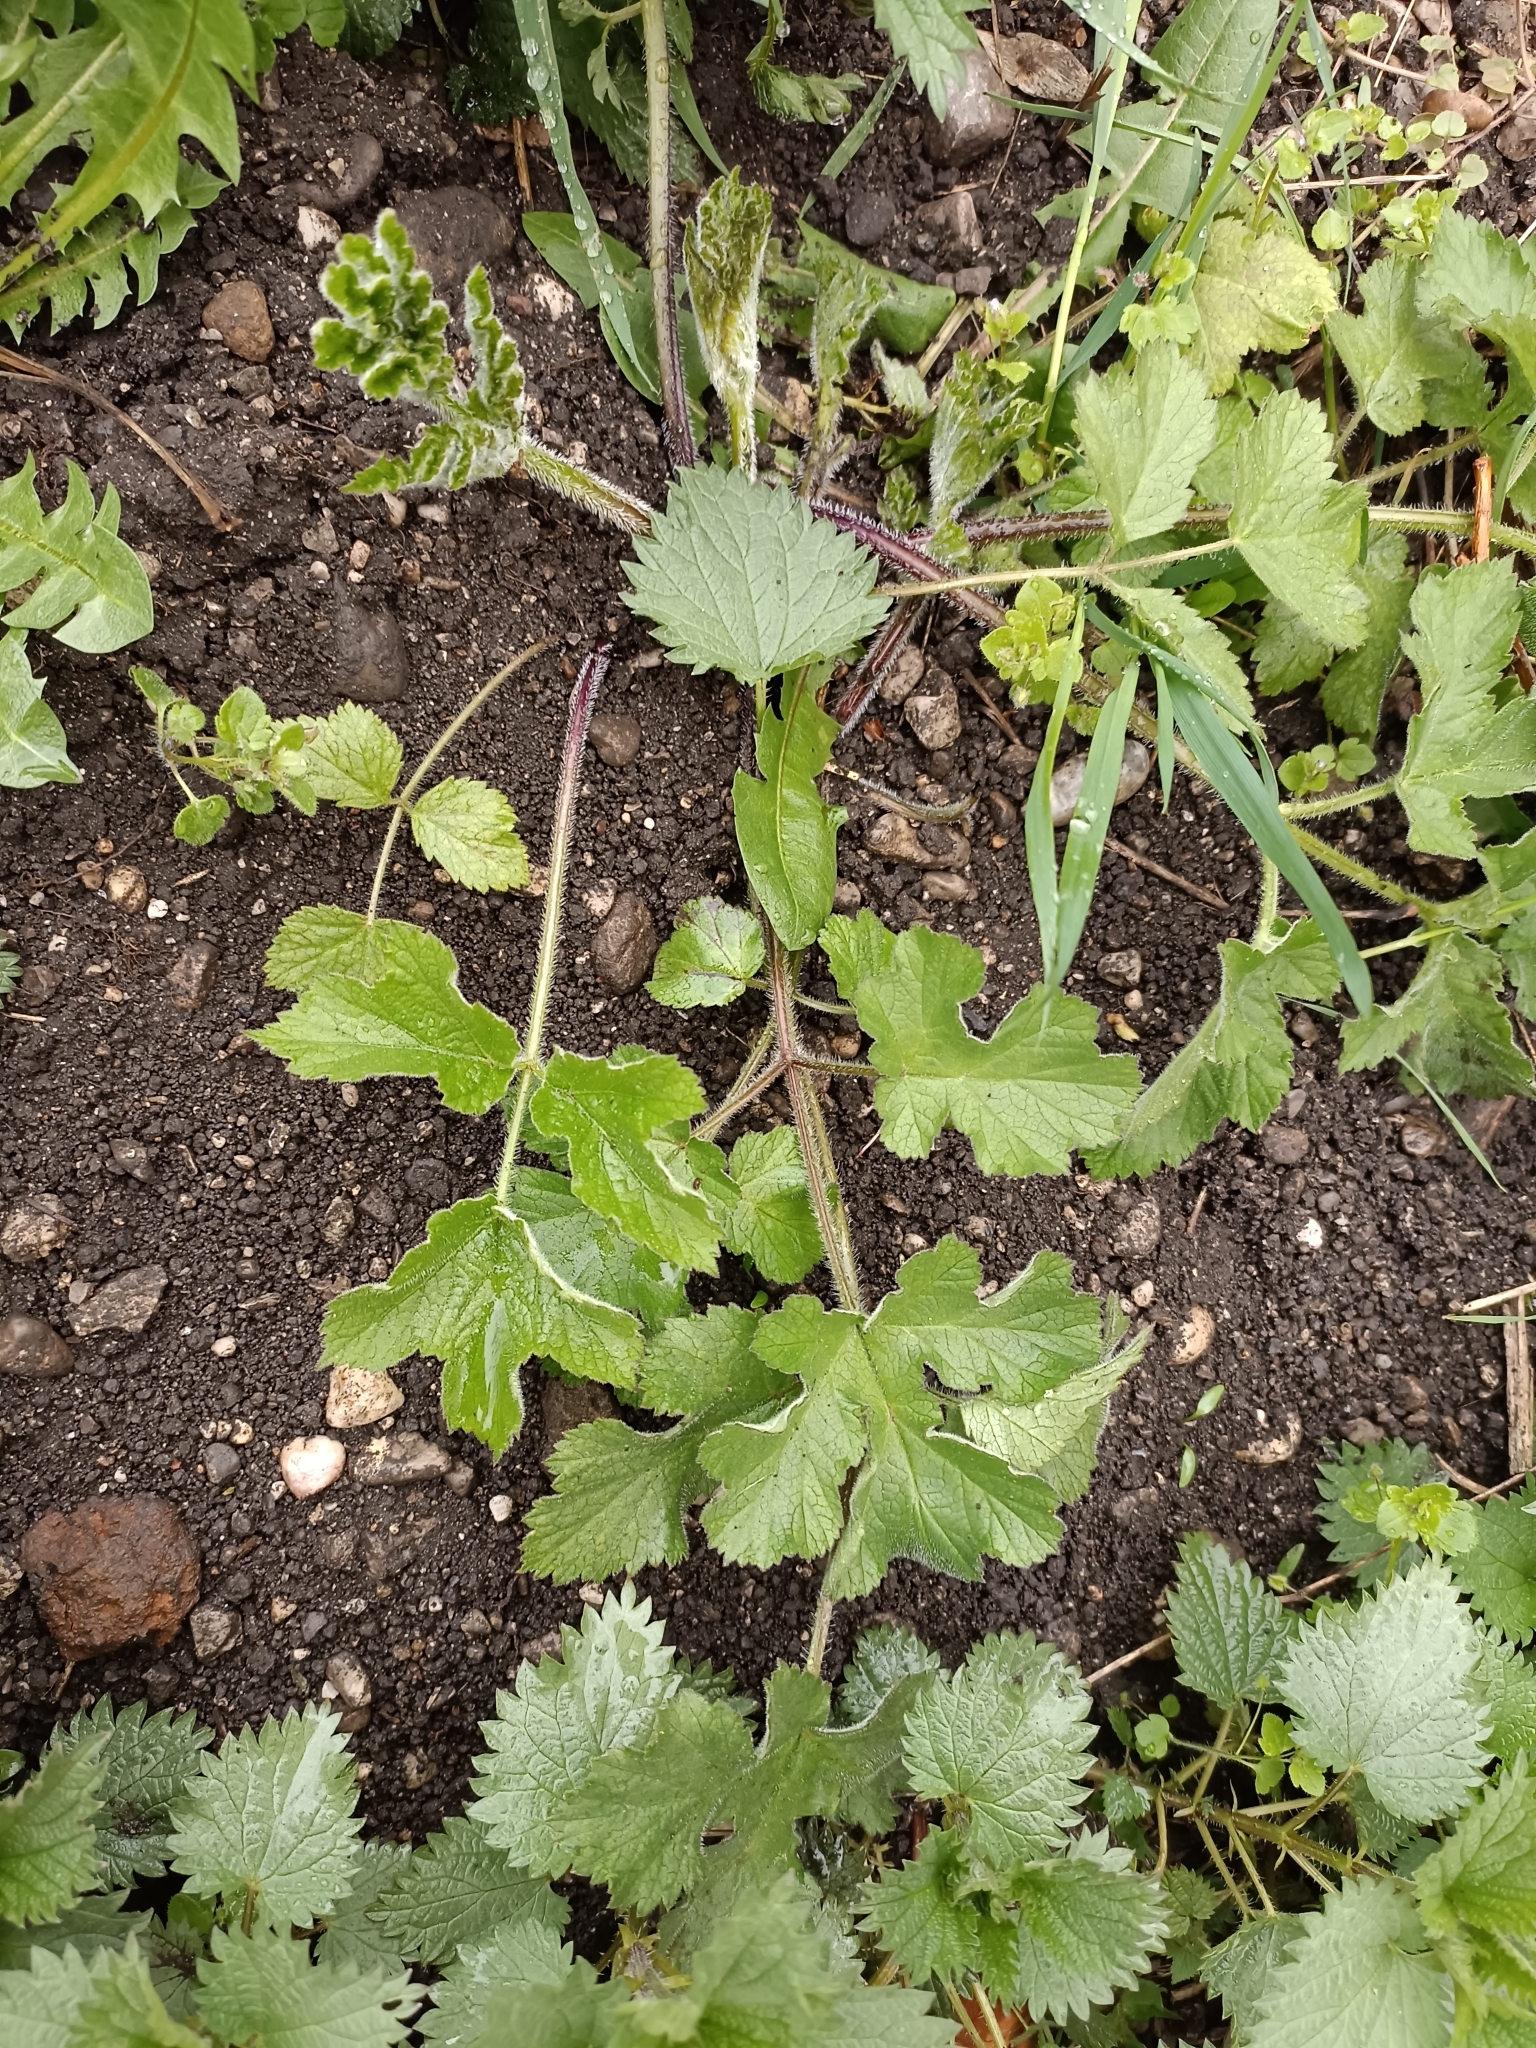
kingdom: Plantae
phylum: Tracheophyta
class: Magnoliopsida
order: Apiales
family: Apiaceae
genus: Heracleum
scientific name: Heracleum sphondylium
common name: Hogweed
